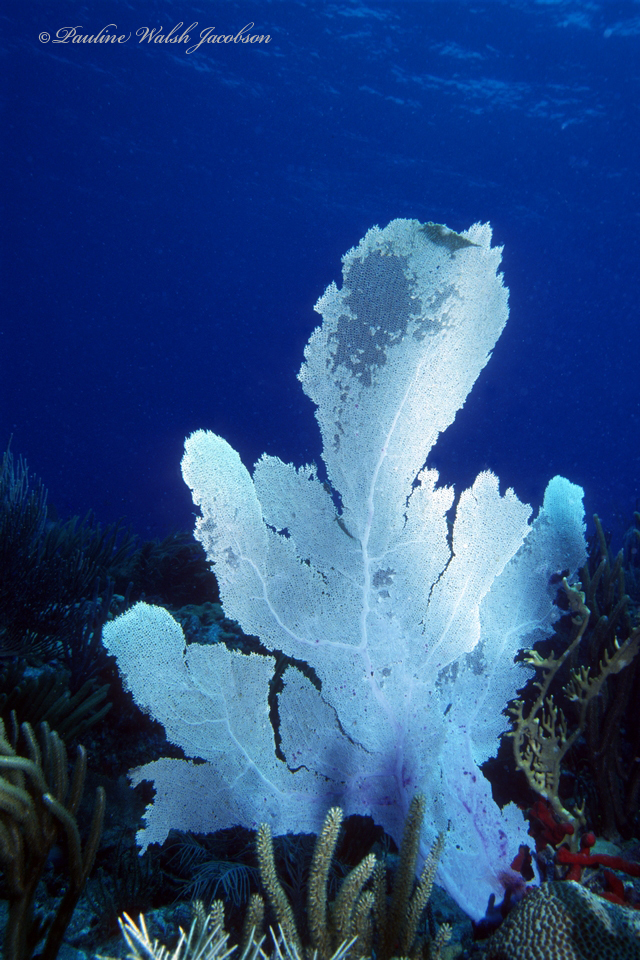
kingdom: Animalia
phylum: Cnidaria
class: Anthozoa
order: Malacalcyonacea
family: Gorgoniidae
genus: Gorgonia
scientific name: Gorgonia ventalina
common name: Common sea fan
